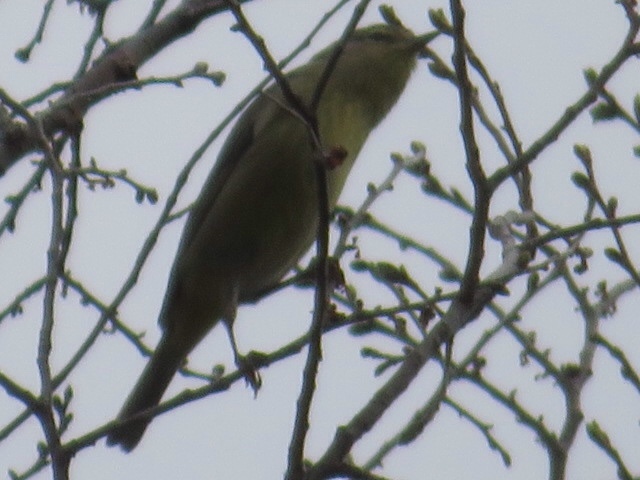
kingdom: Animalia
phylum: Chordata
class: Aves
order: Passeriformes
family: Parulidae
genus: Leiothlypis
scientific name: Leiothlypis celata
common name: Orange-crowned warbler
